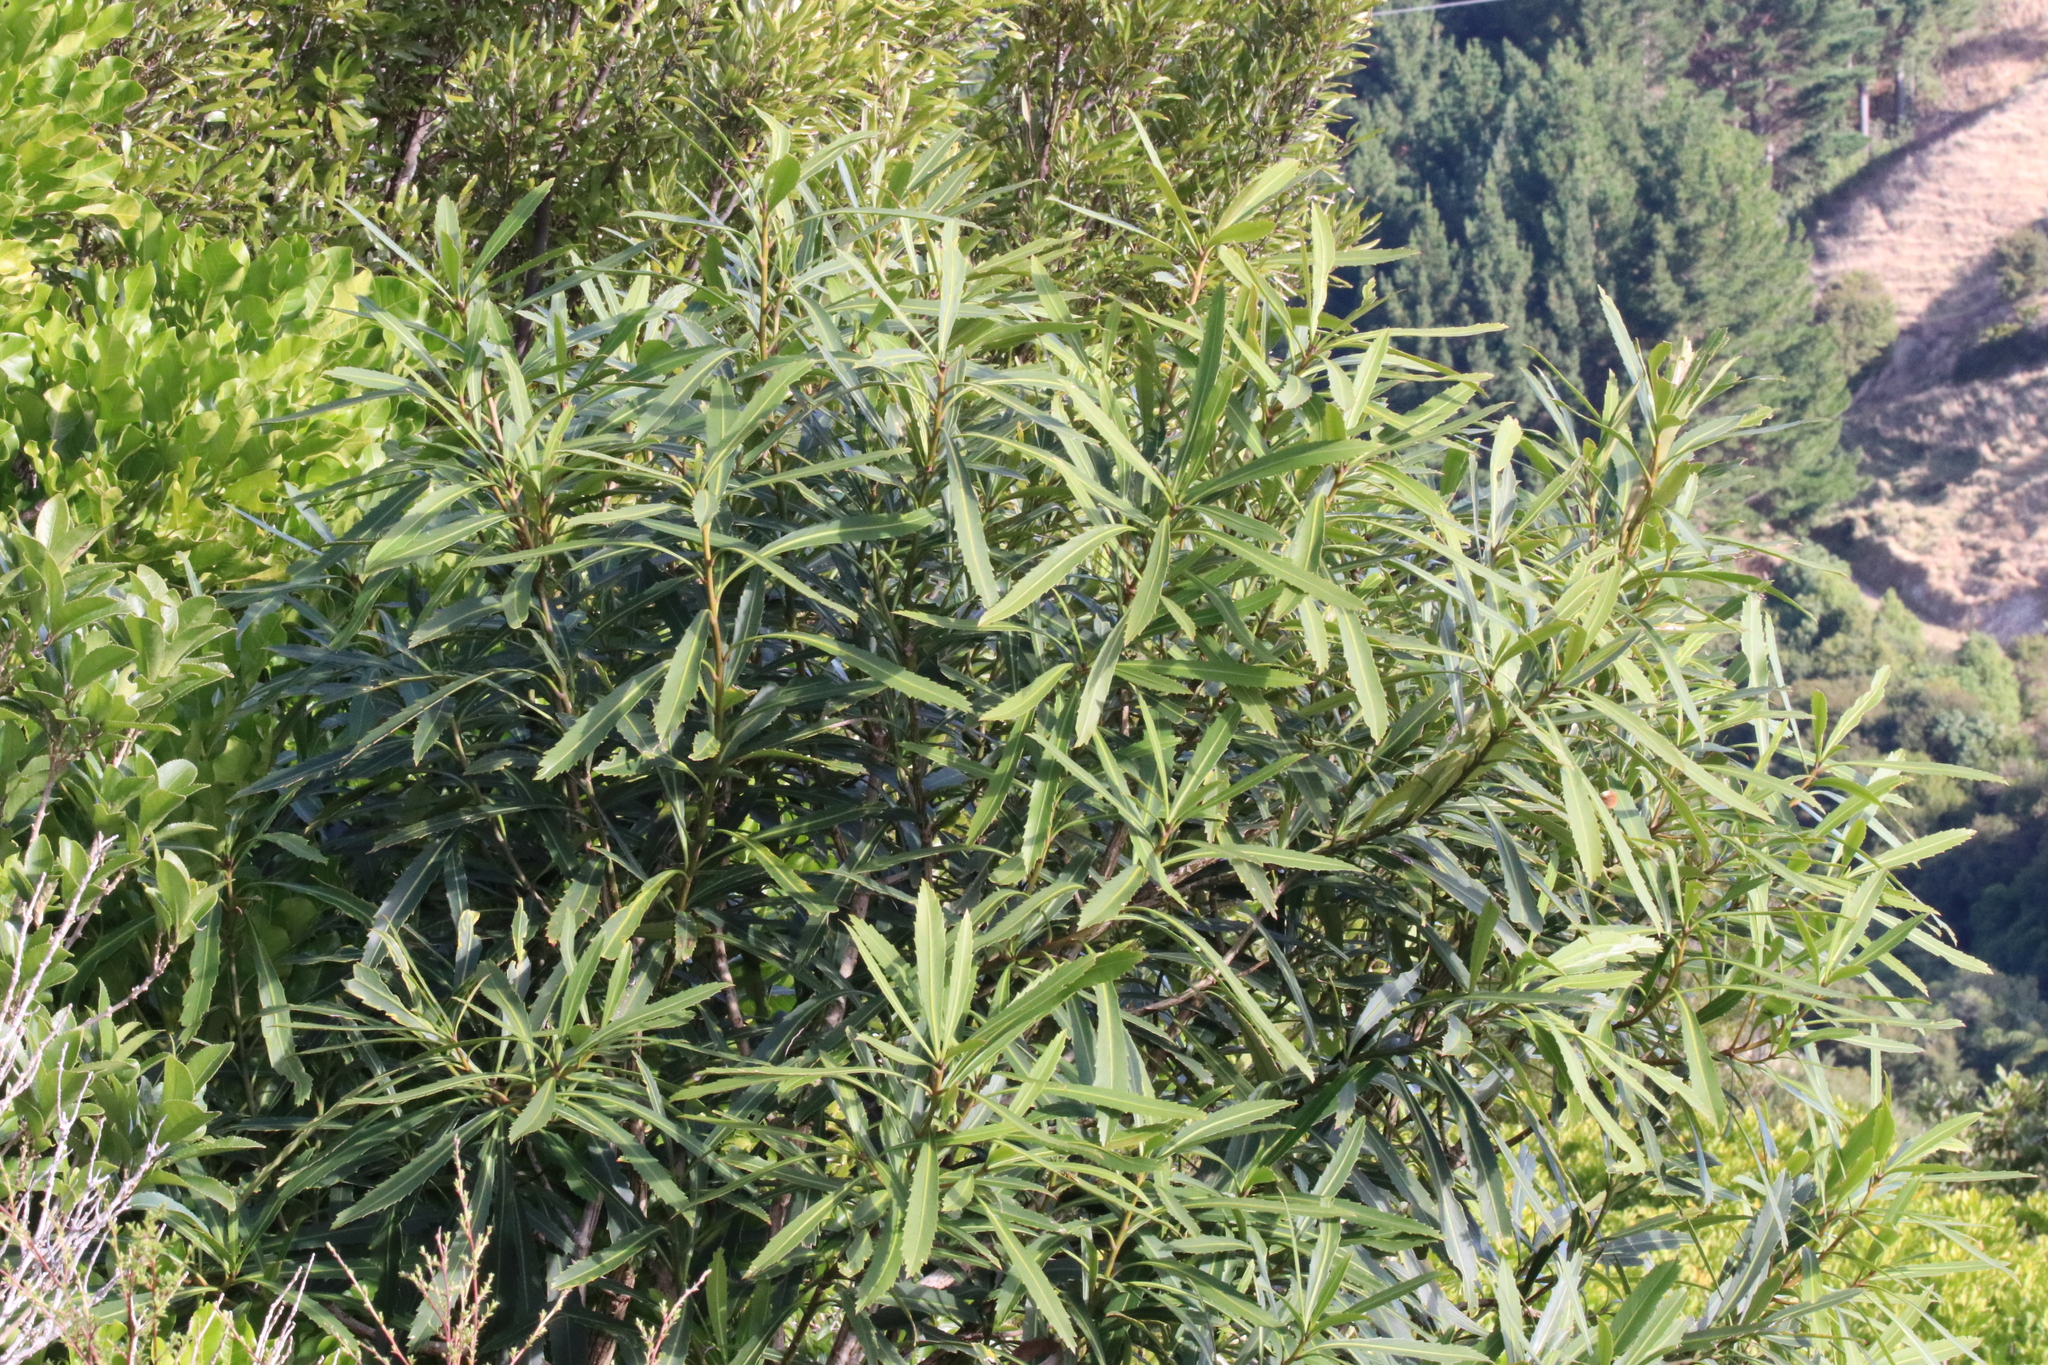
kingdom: Plantae
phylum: Tracheophyta
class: Magnoliopsida
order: Apiales
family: Araliaceae
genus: Pseudopanax
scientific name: Pseudopanax crassifolius
